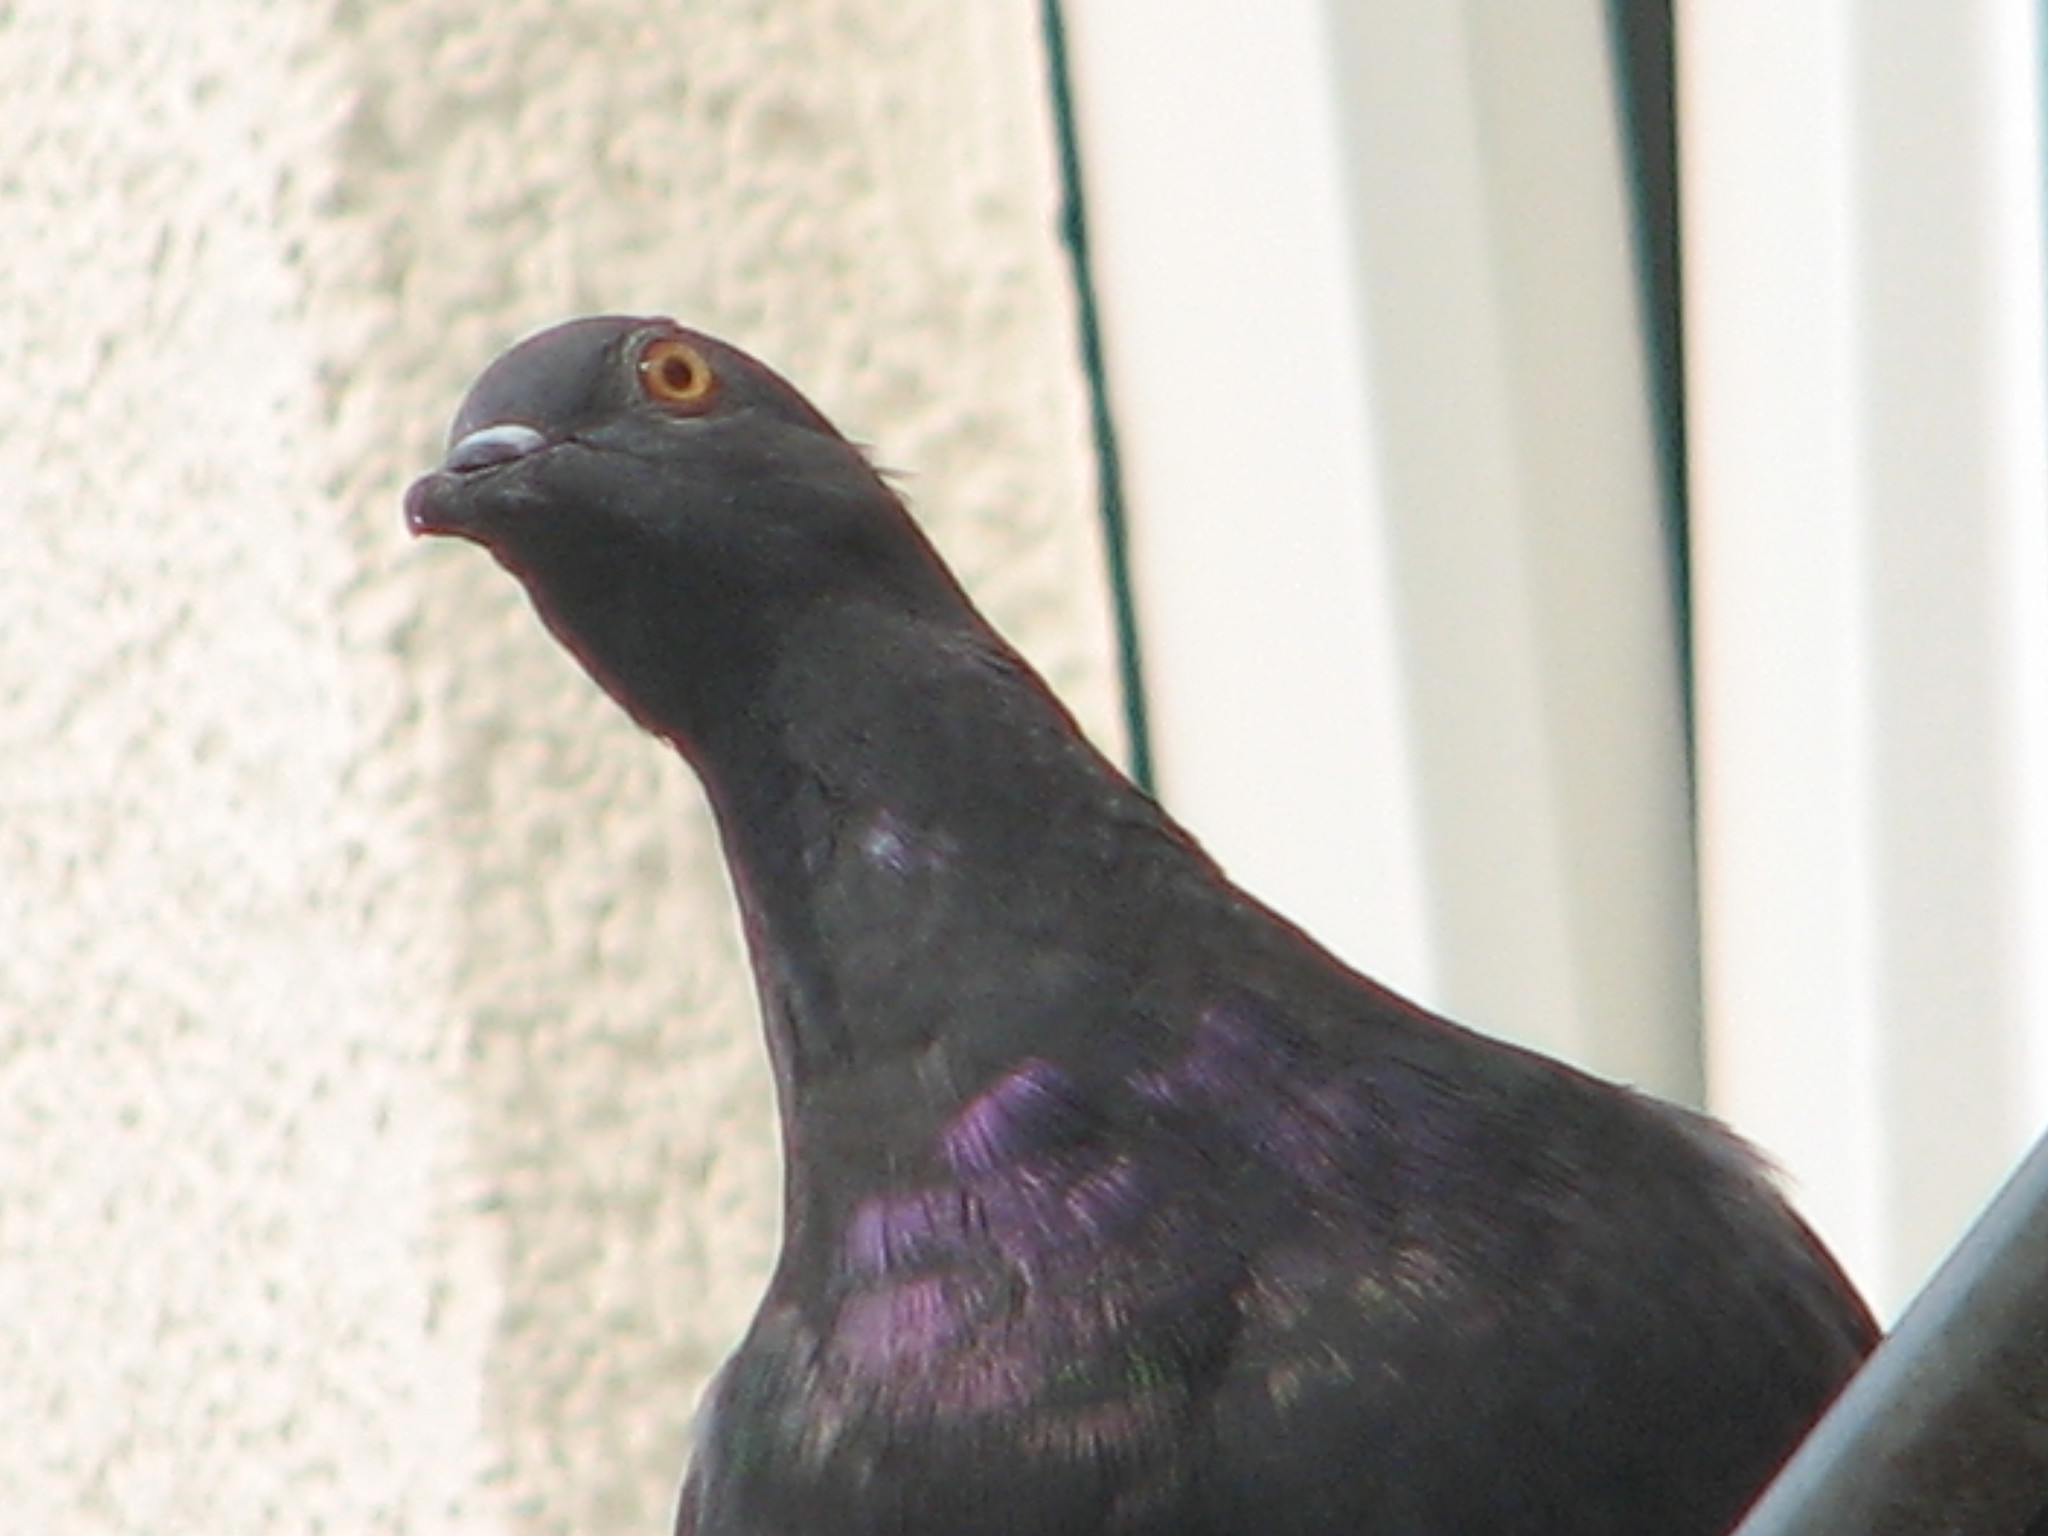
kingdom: Animalia
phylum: Chordata
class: Aves
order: Columbiformes
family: Columbidae
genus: Columba
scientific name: Columba livia
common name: Rock pigeon
